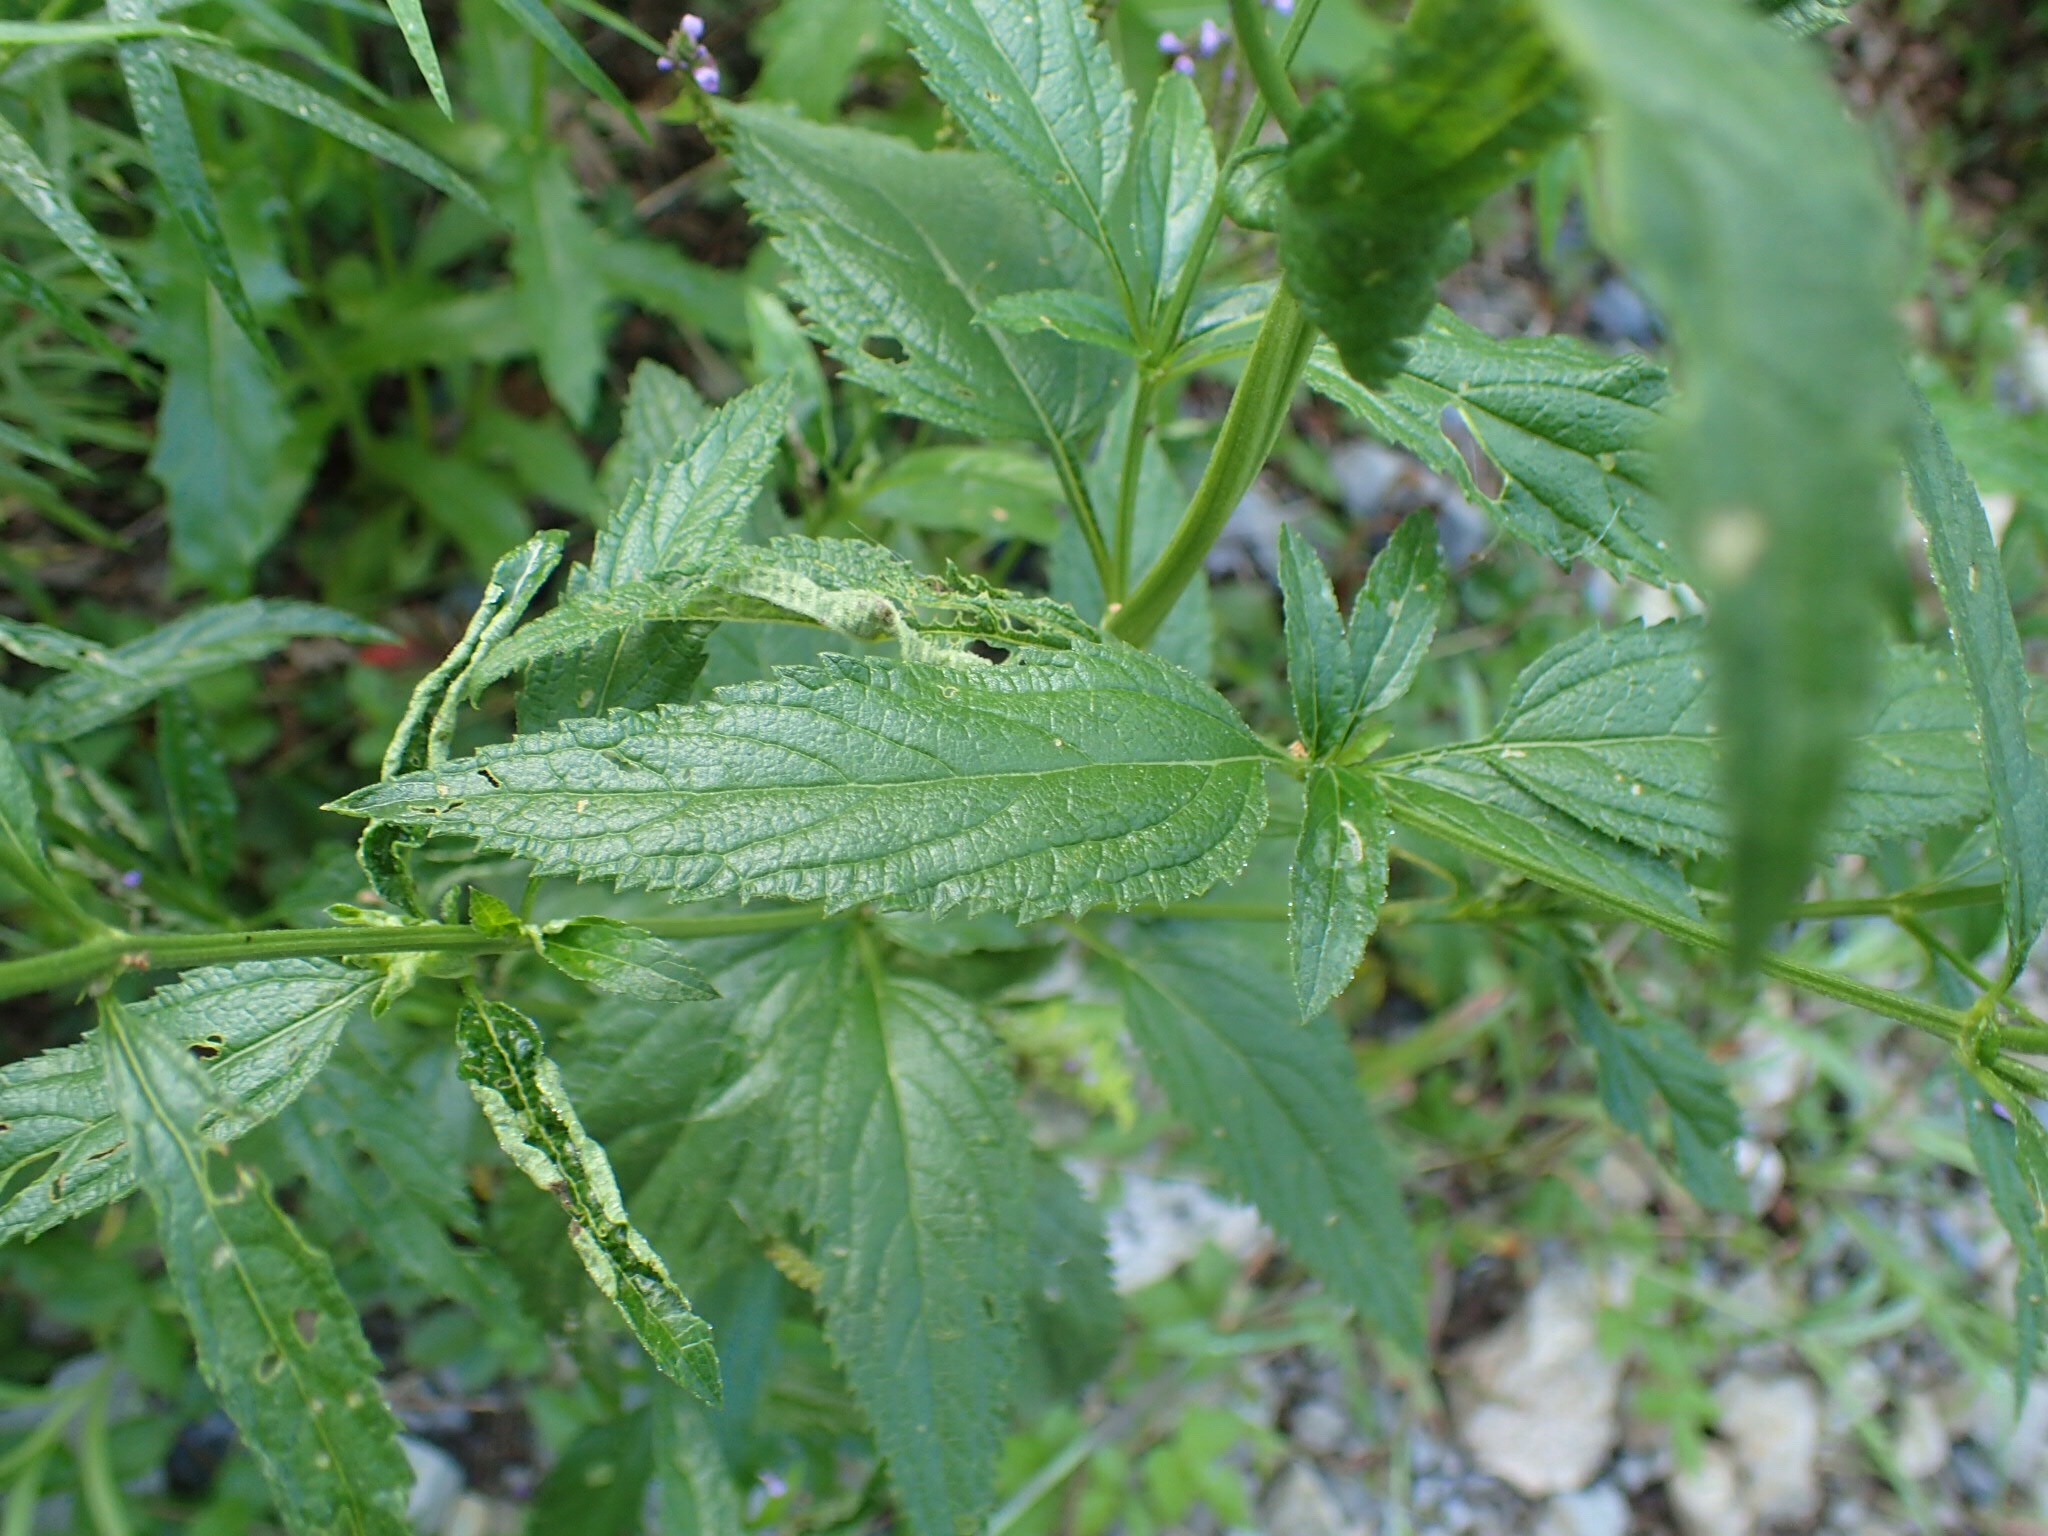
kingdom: Plantae
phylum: Tracheophyta
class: Magnoliopsida
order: Lamiales
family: Verbenaceae
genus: Verbena
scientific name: Verbena hastata
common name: American blue vervain
